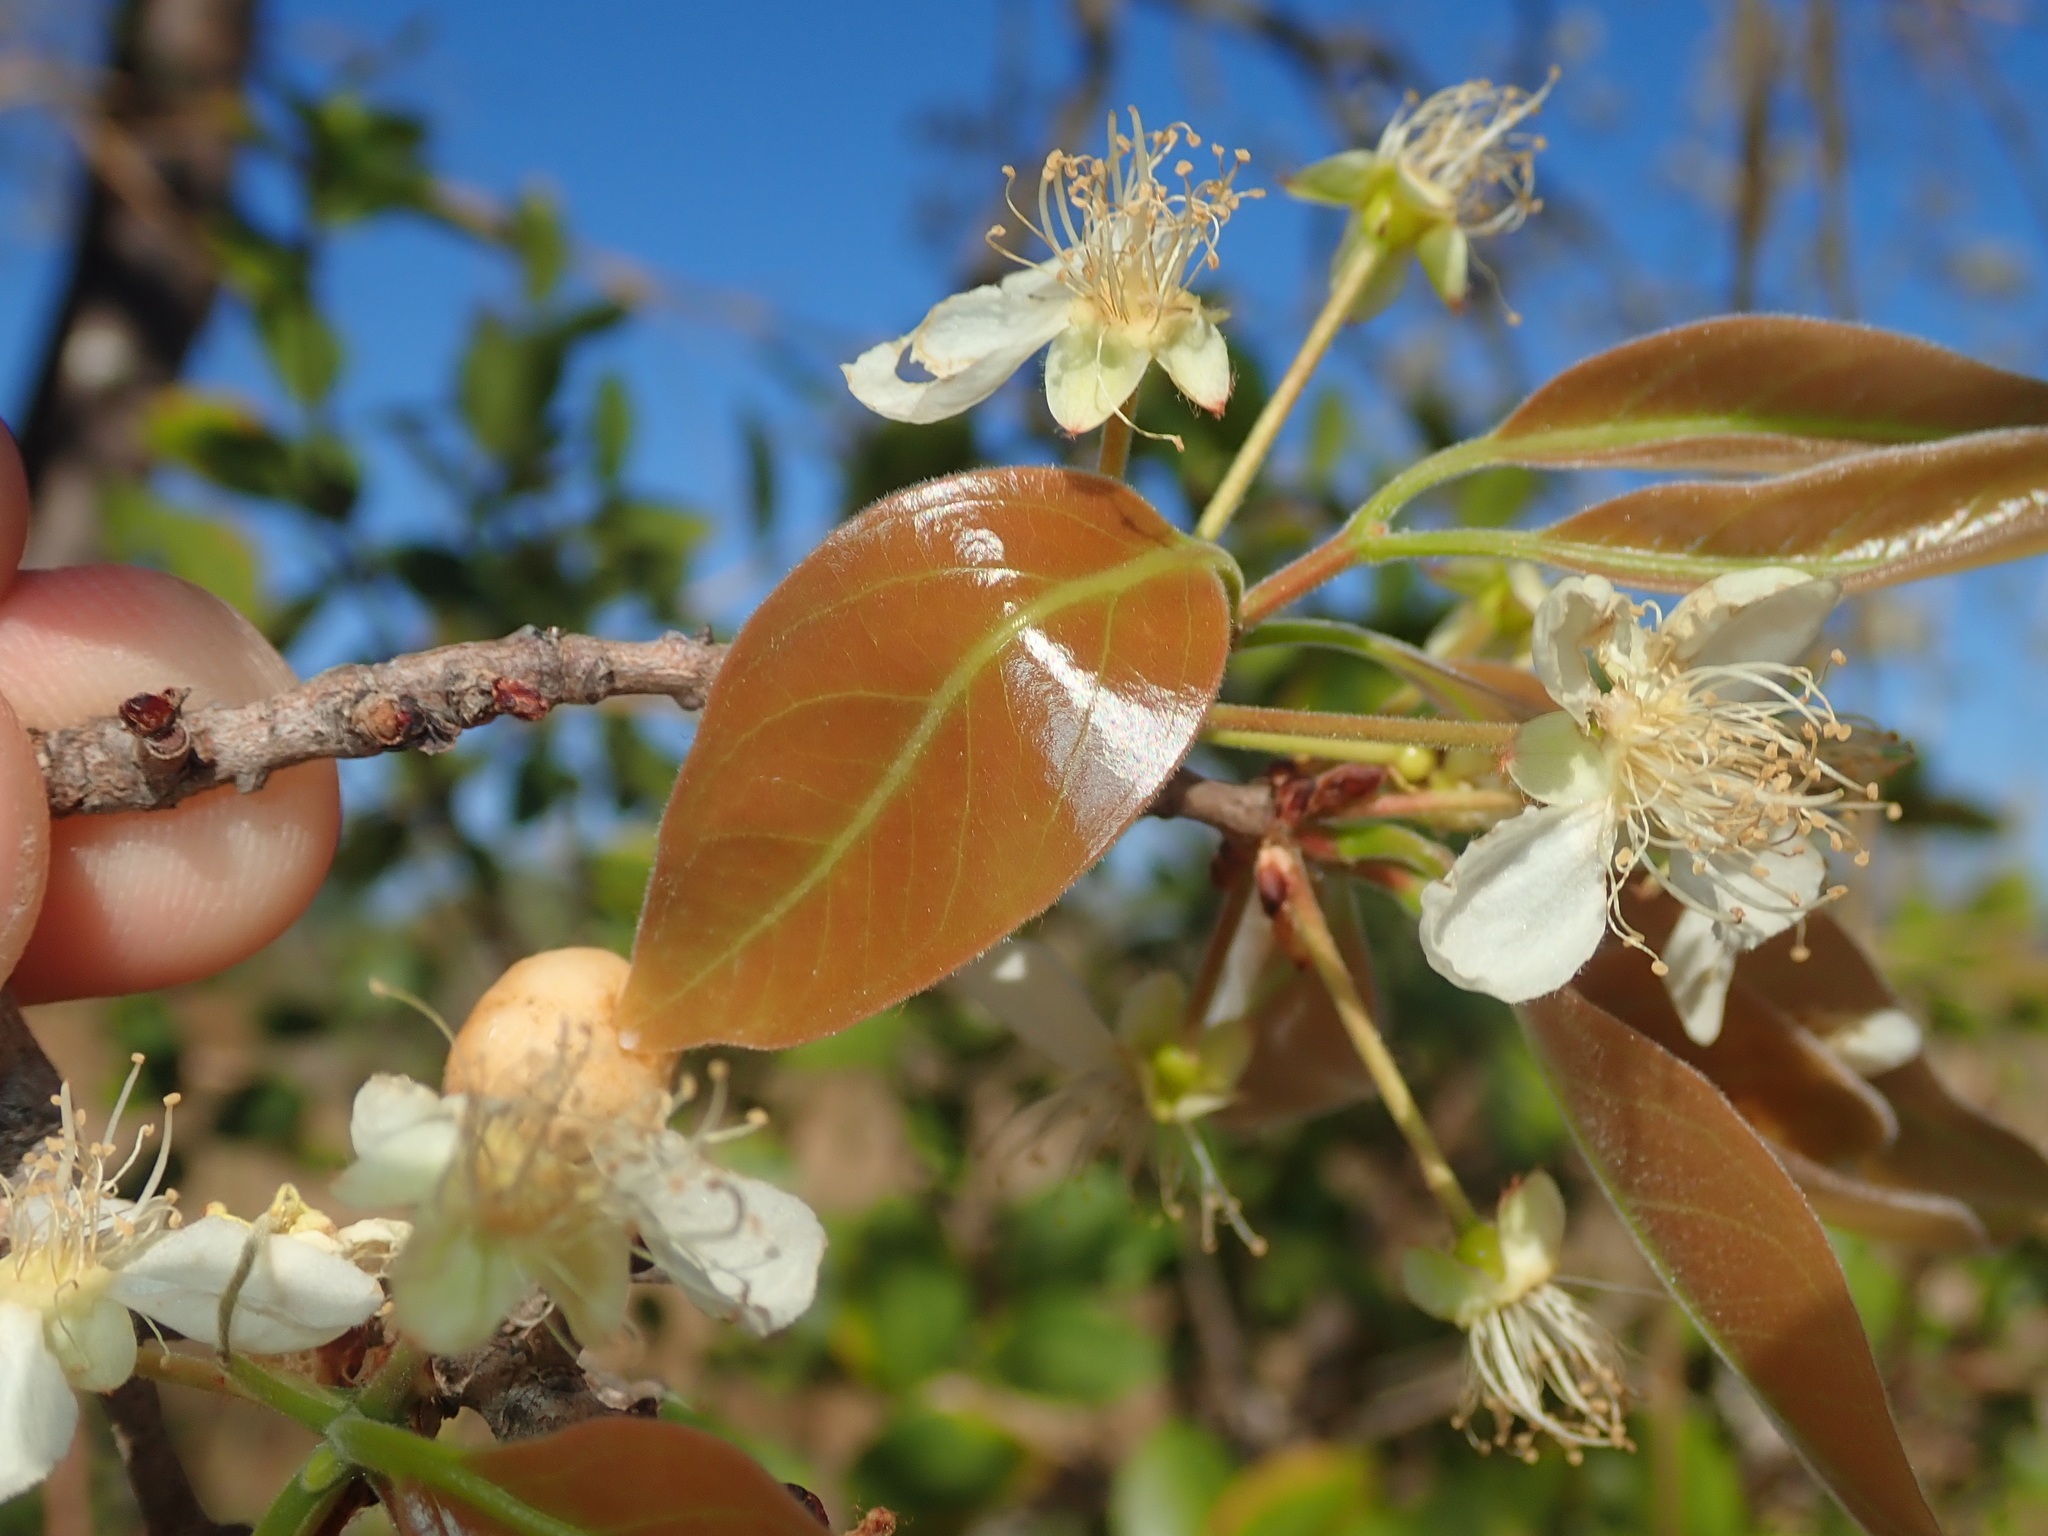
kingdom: Plantae
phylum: Tracheophyta
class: Magnoliopsida
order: Myrtales
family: Myrtaceae
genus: Eugenia
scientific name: Eugenia dysenterica
